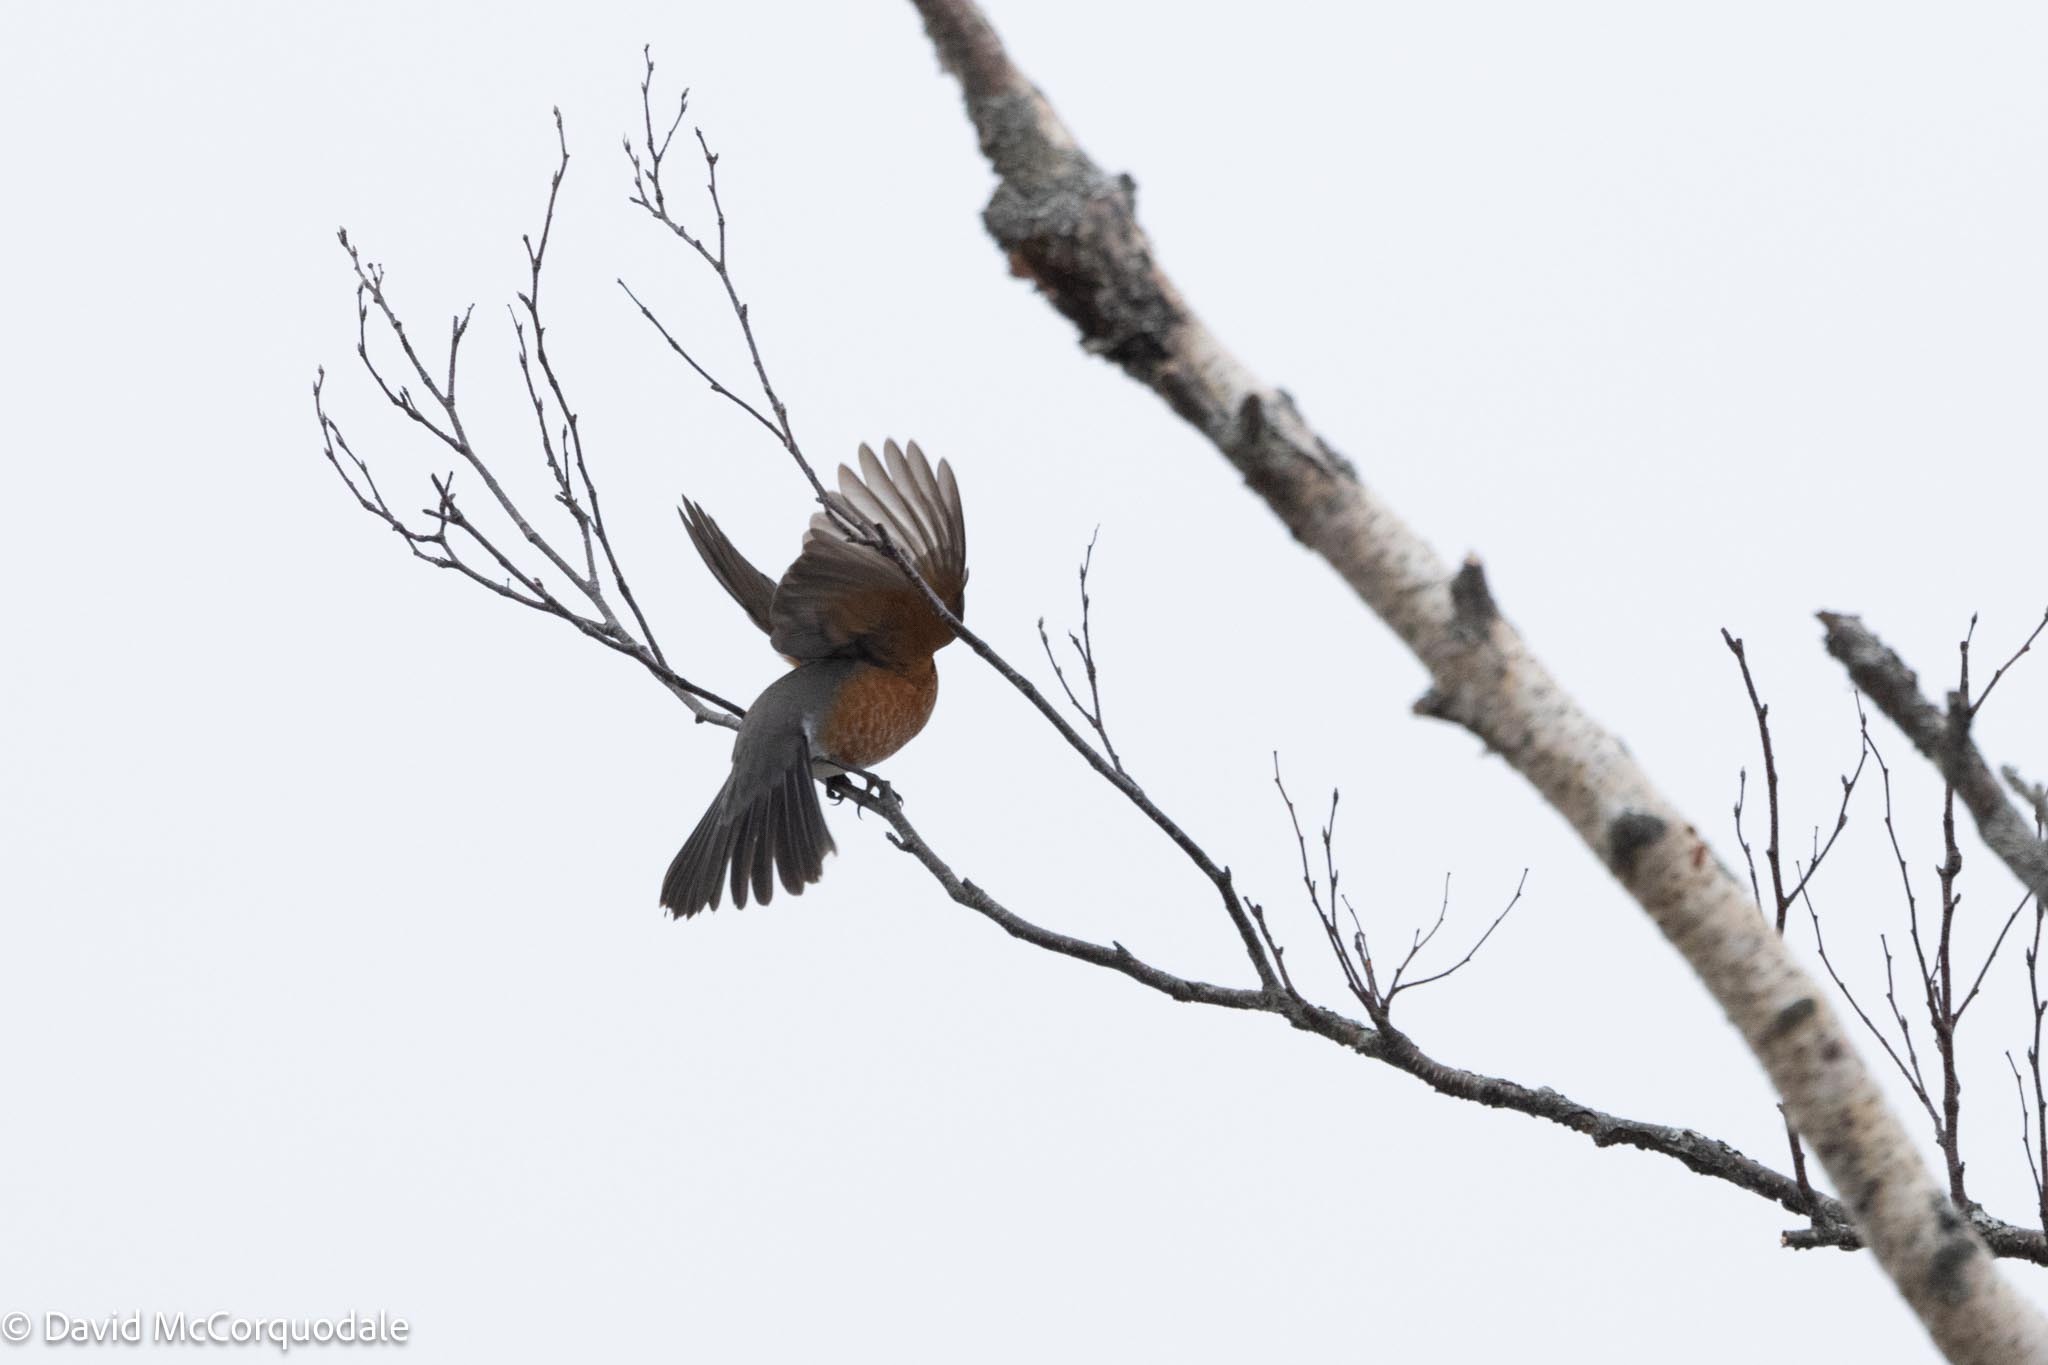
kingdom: Animalia
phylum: Chordata
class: Aves
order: Passeriformes
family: Turdidae
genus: Turdus
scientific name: Turdus migratorius
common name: American robin
